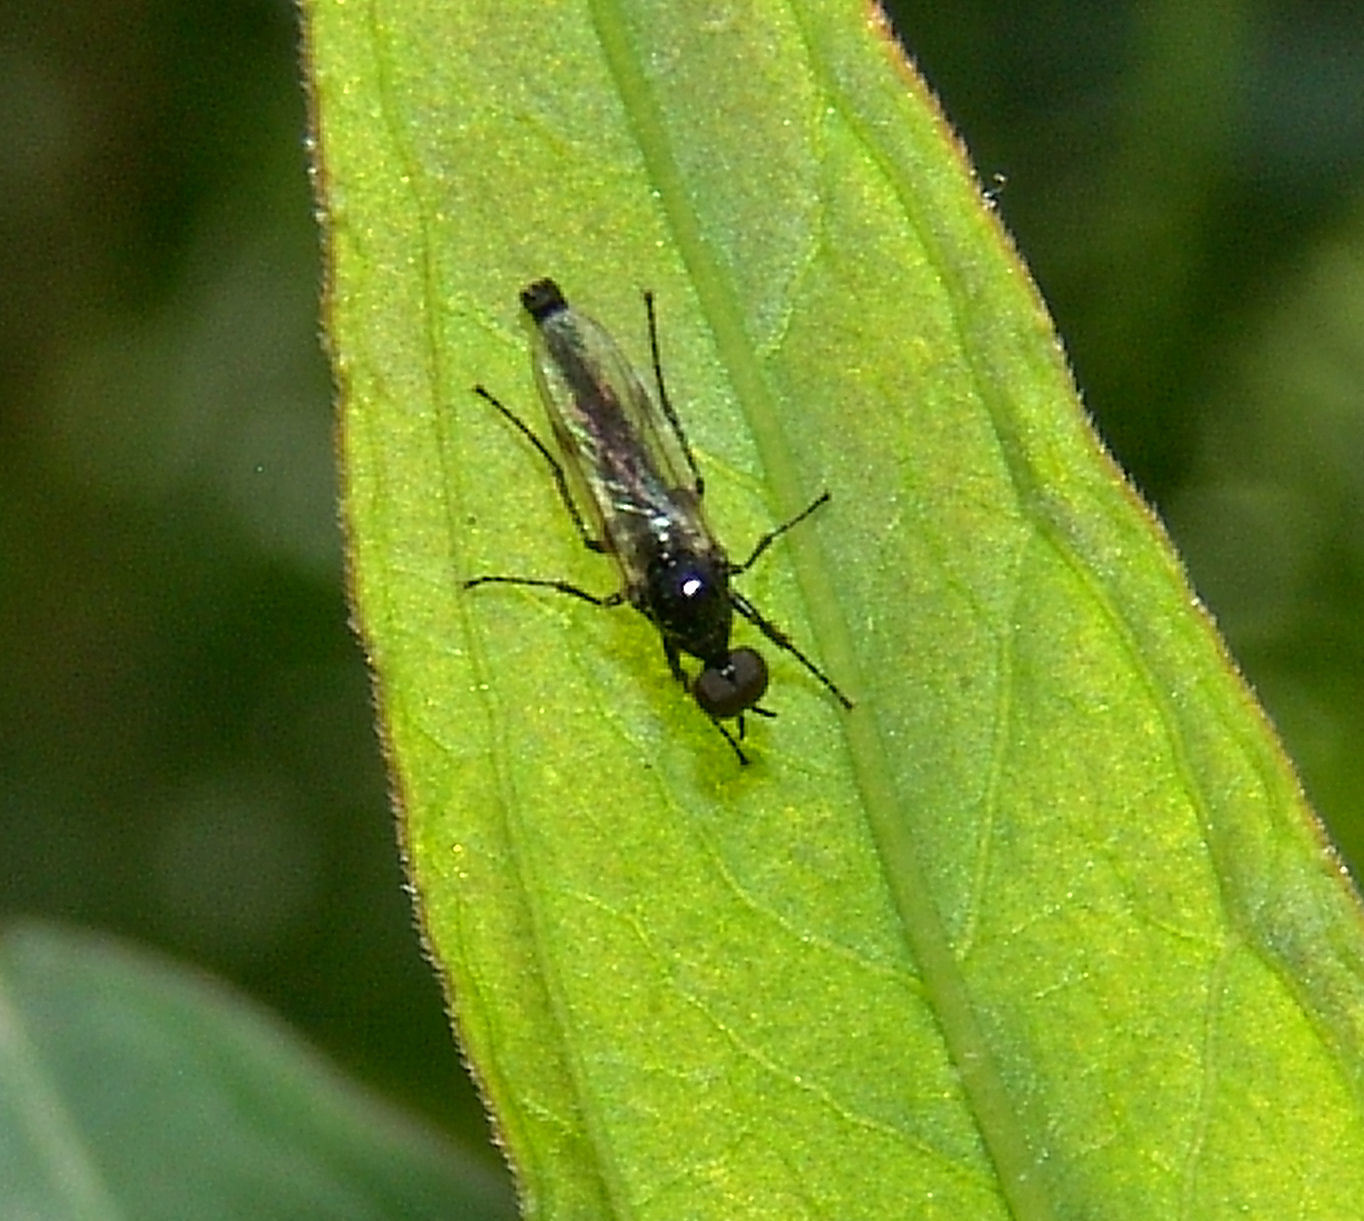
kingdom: Animalia
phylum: Arthropoda
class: Insecta
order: Diptera
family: Bibionidae
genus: Dilophus
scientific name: Dilophus
